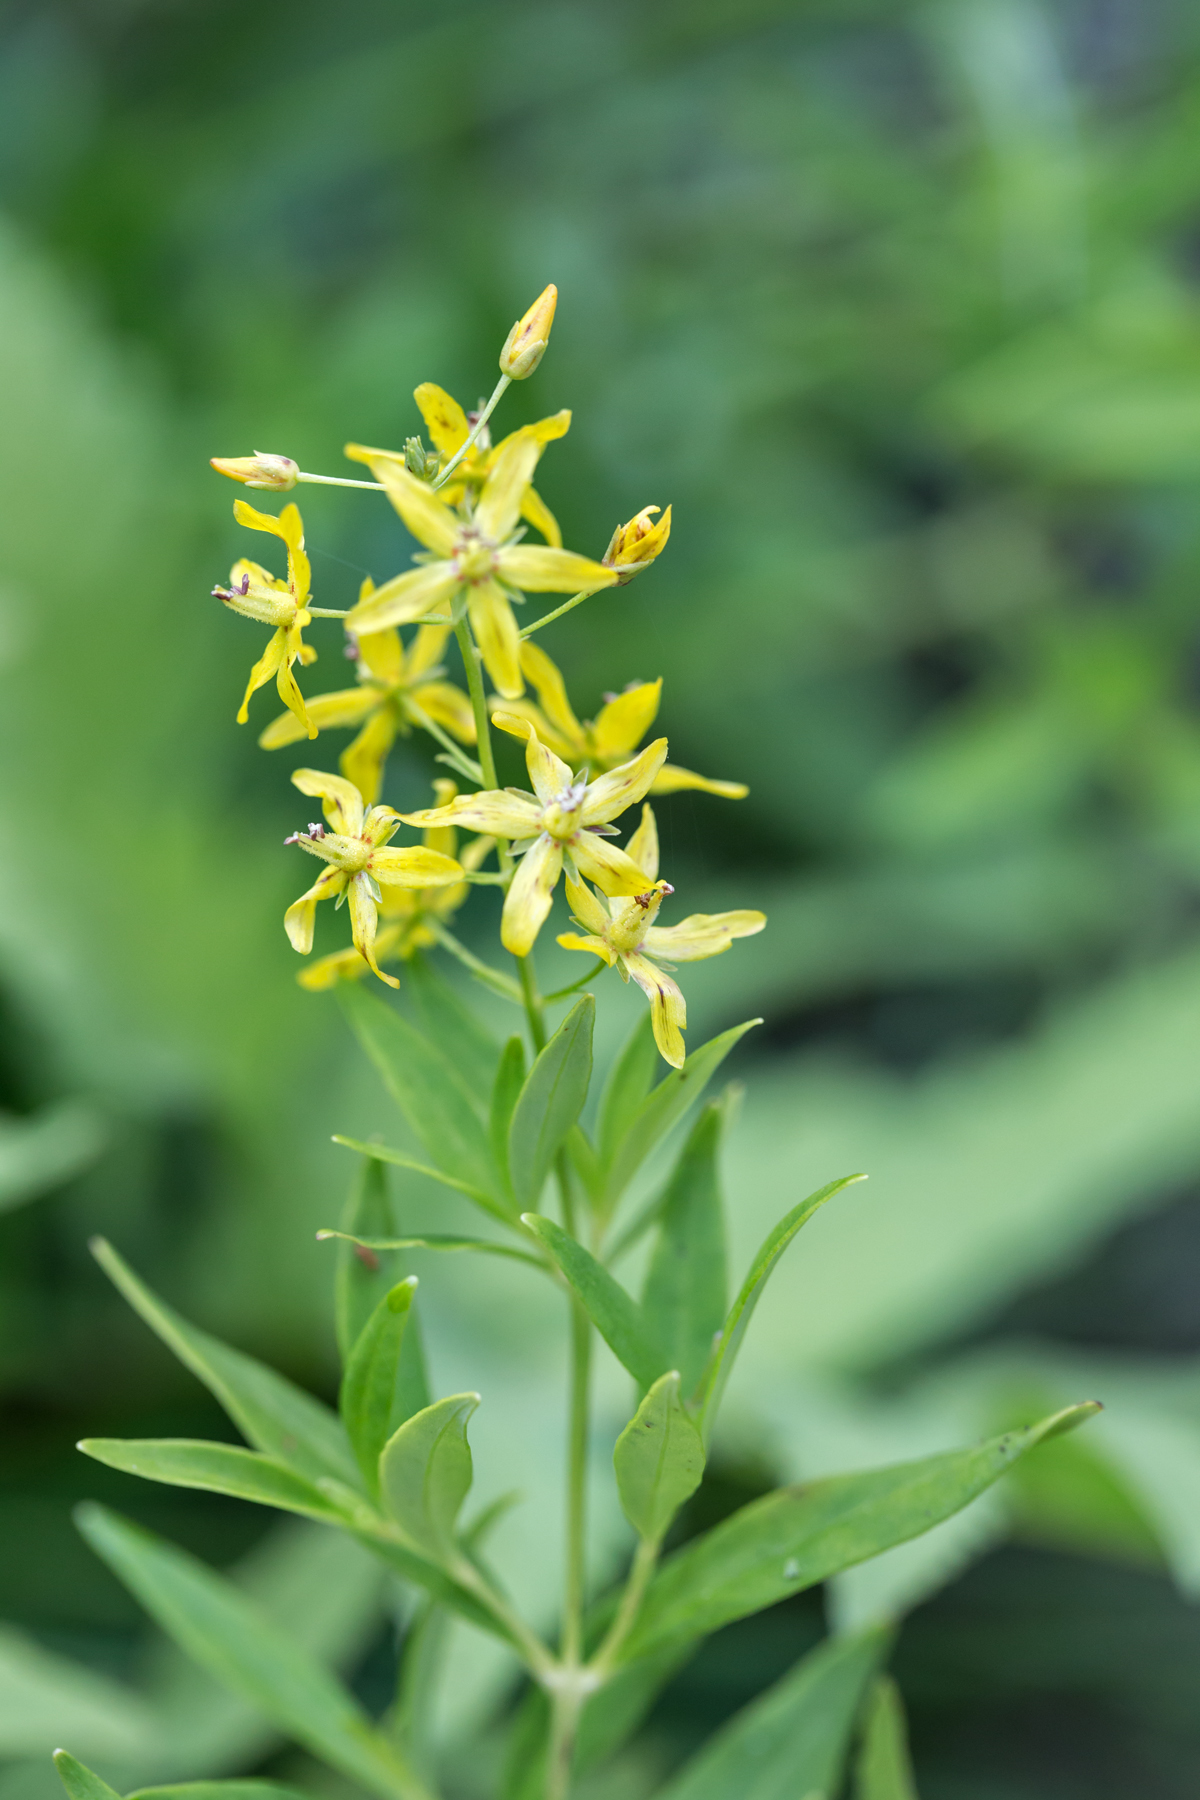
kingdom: Plantae
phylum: Tracheophyta
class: Magnoliopsida
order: Ericales
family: Primulaceae
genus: Lysimachia
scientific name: Lysimachia terrestris
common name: Lake loosestrife
